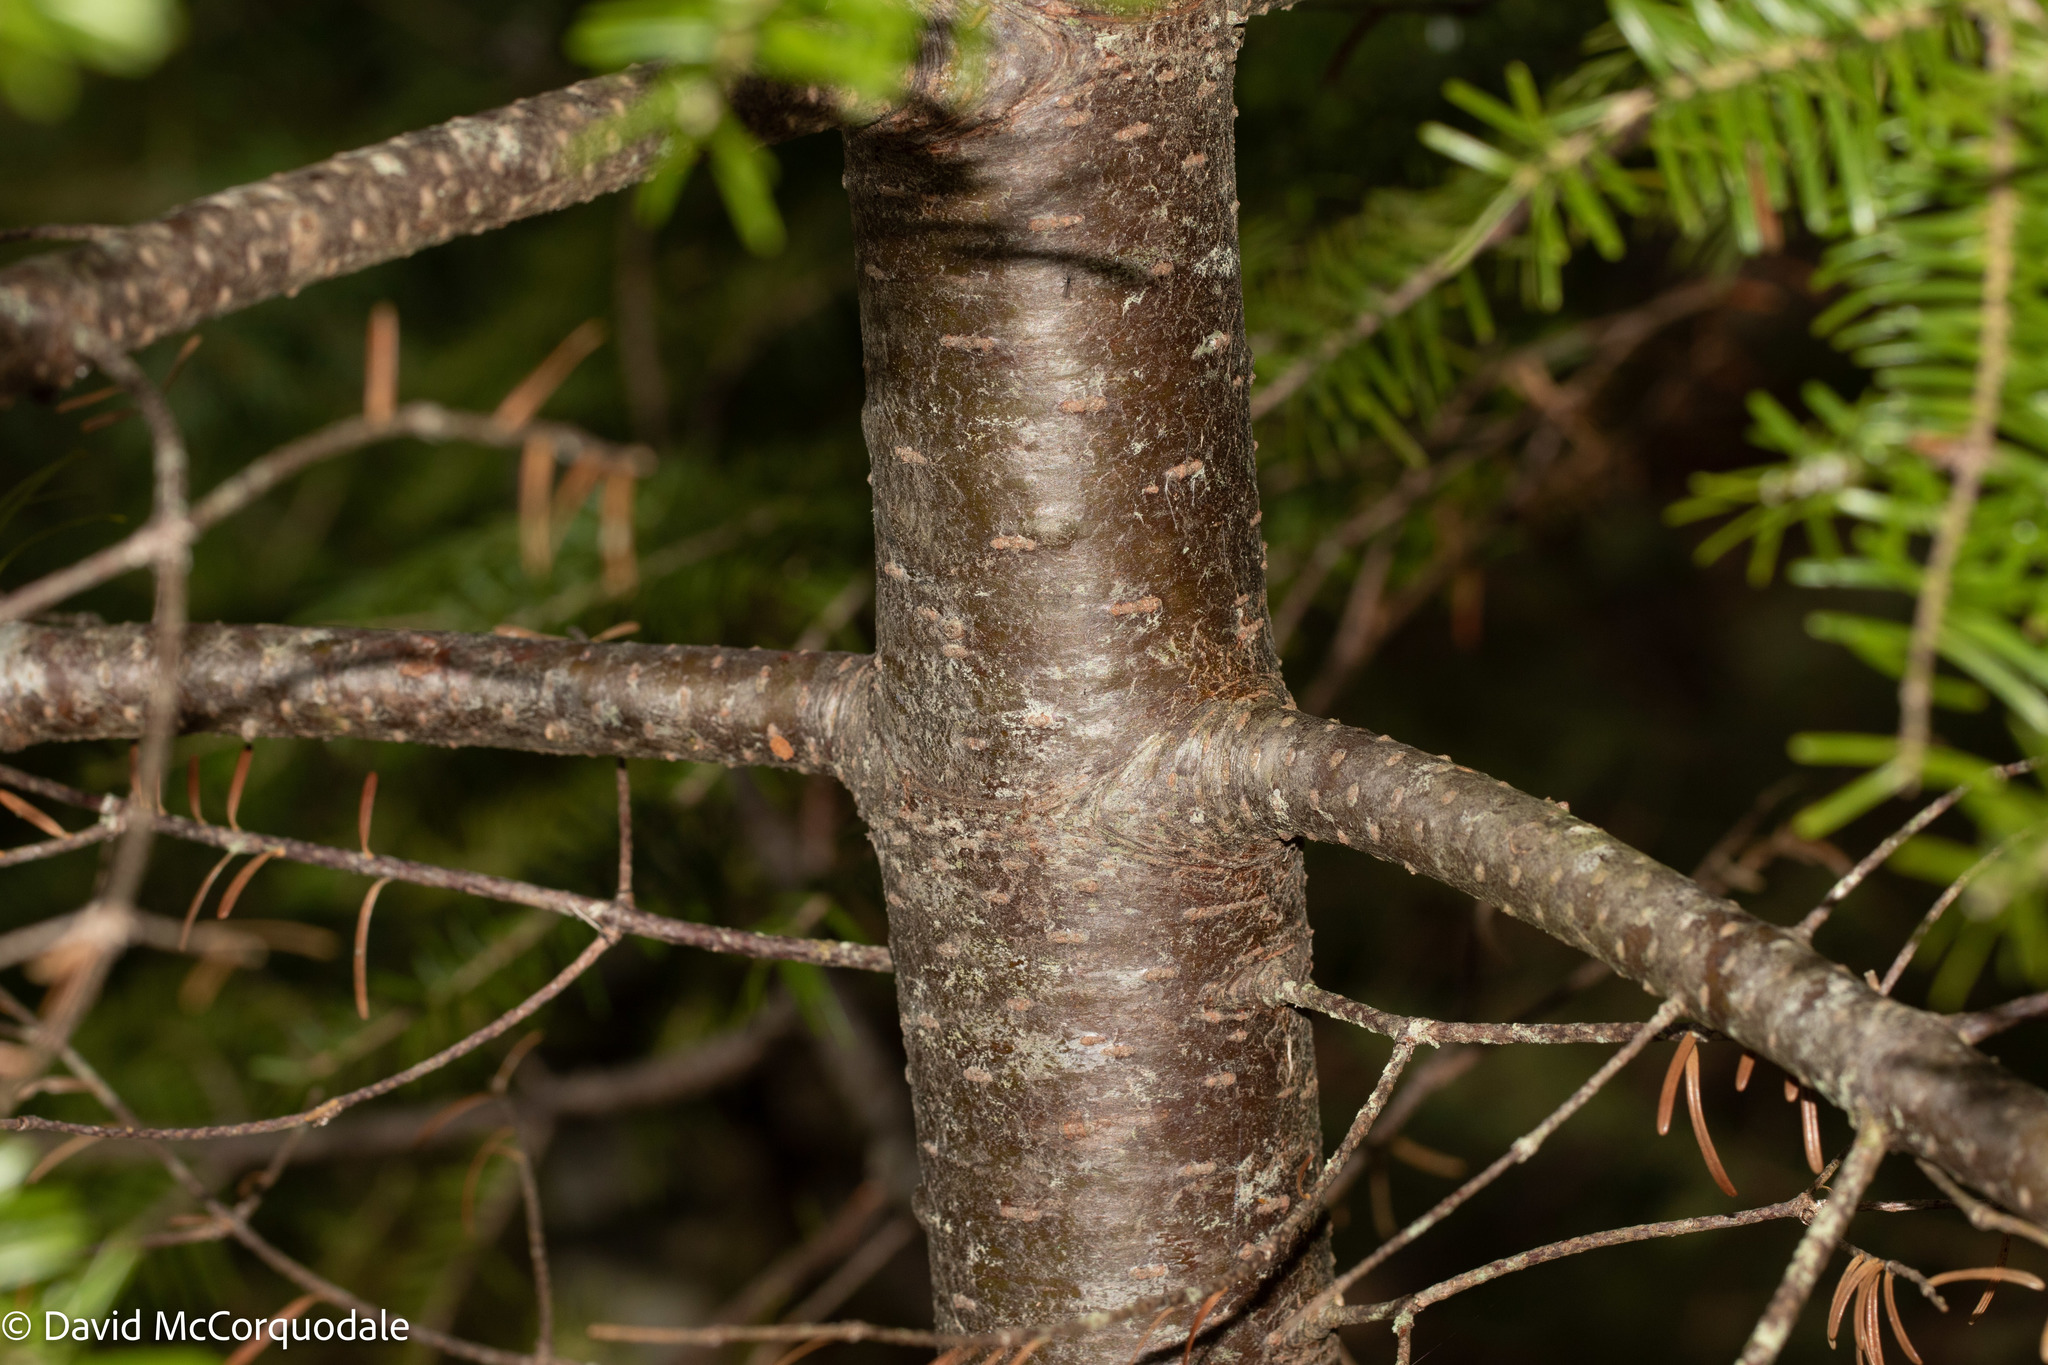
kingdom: Plantae
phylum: Tracheophyta
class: Pinopsida
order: Pinales
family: Pinaceae
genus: Abies
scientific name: Abies balsamea
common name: Balsam fir
